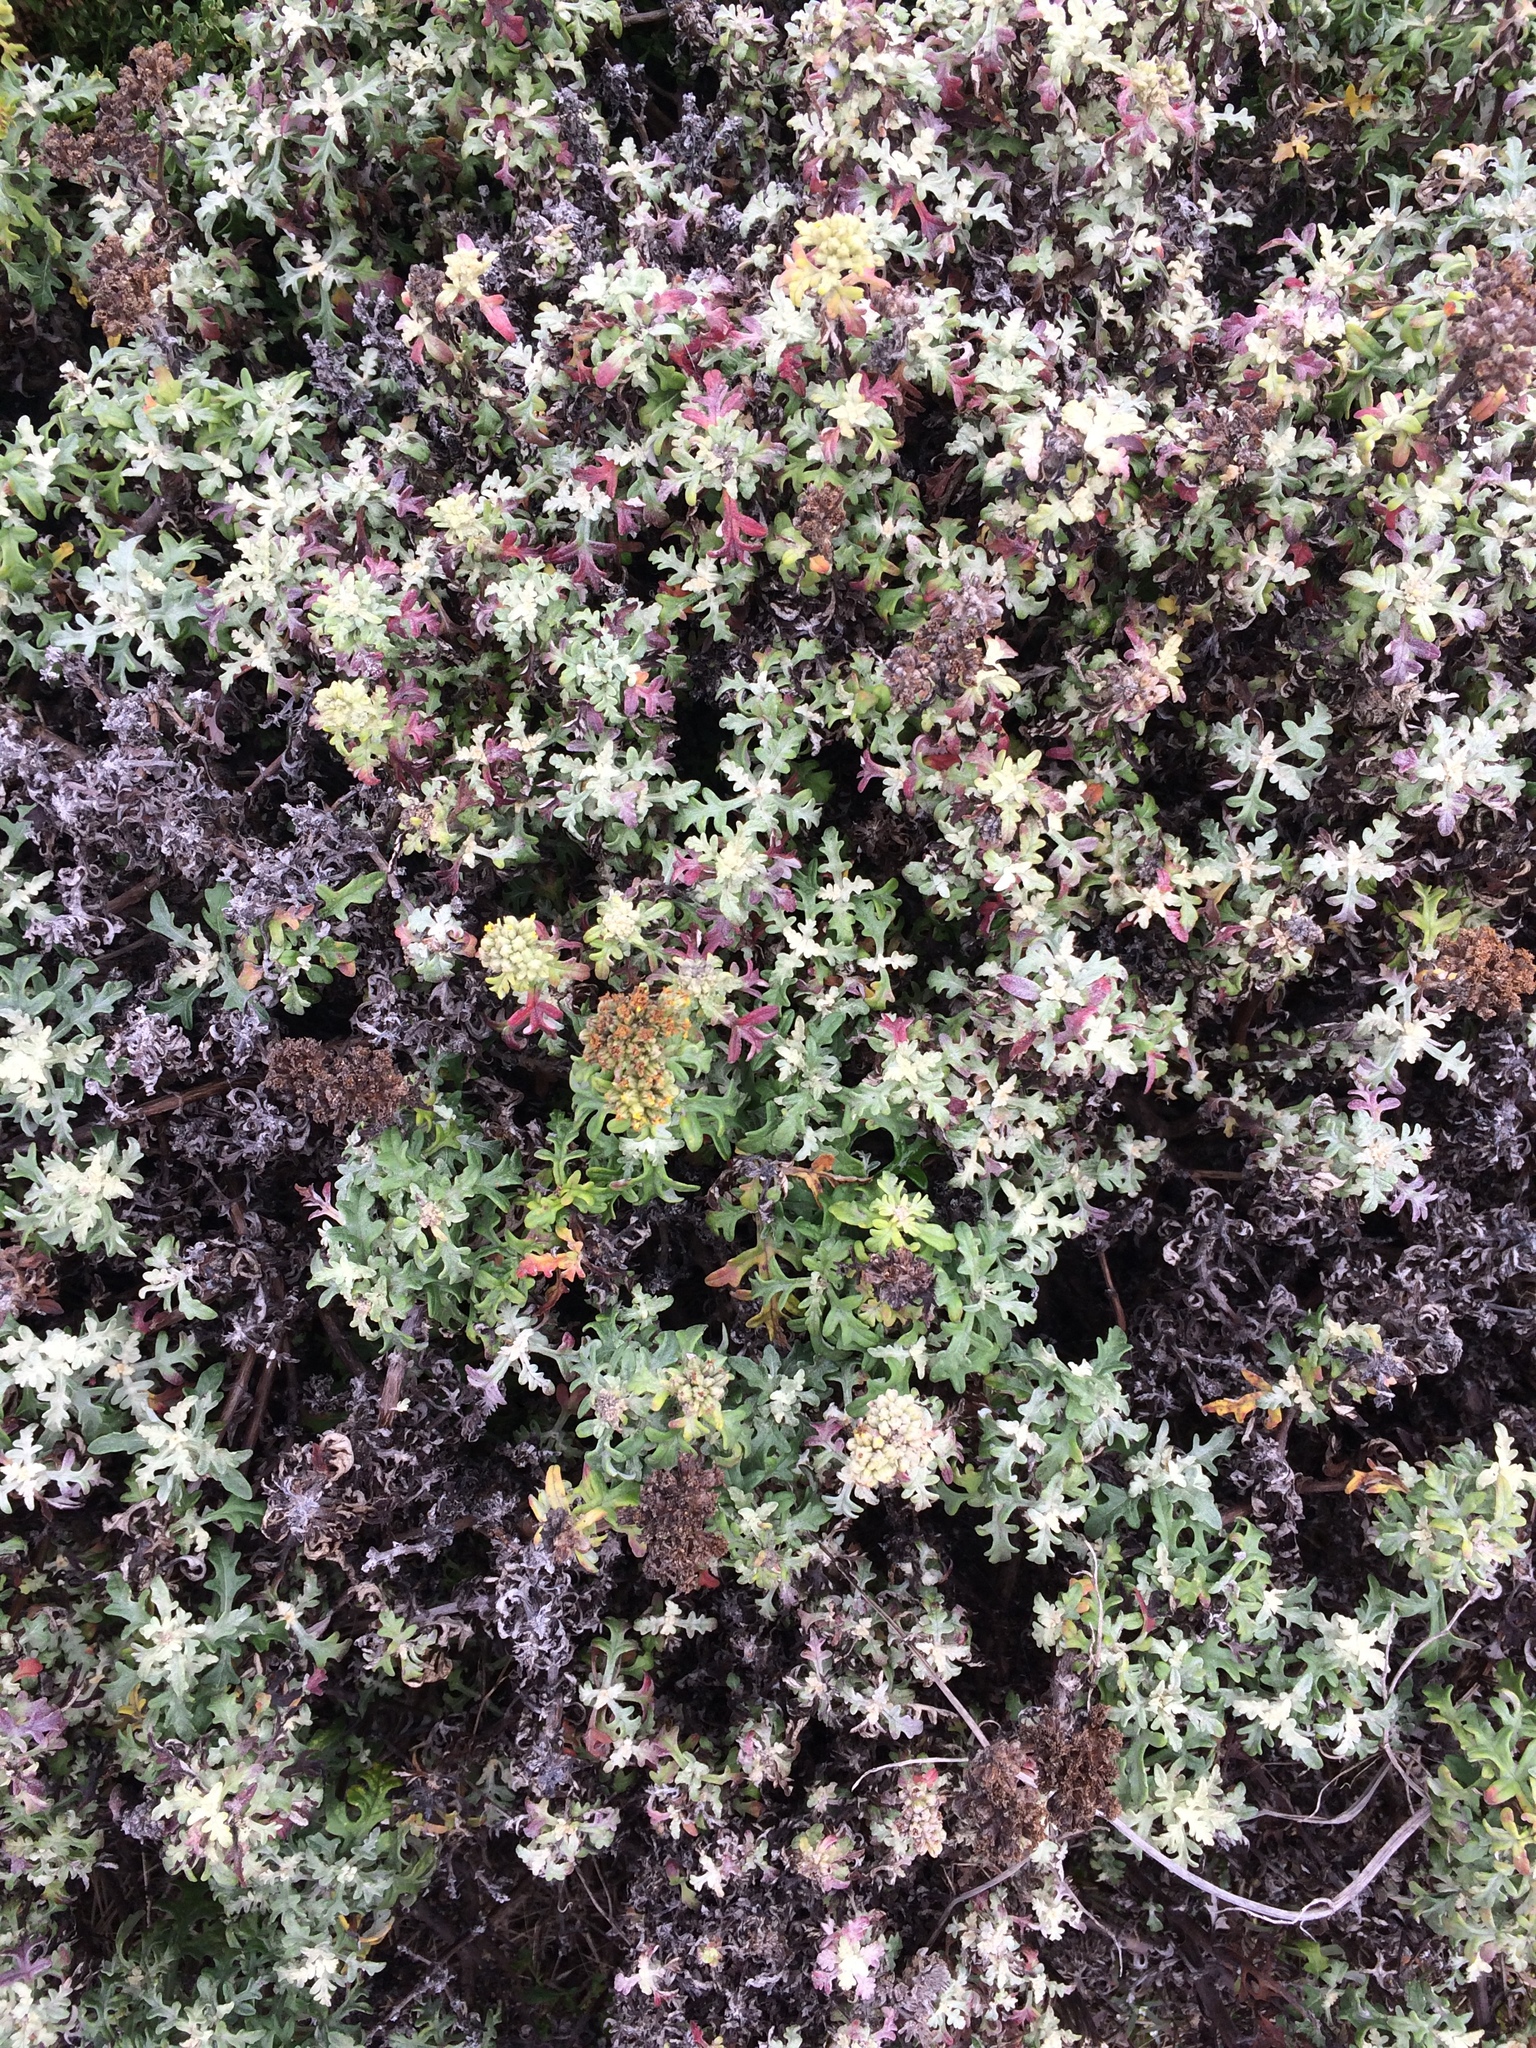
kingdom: Plantae
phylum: Tracheophyta
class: Magnoliopsida
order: Asterales
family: Asteraceae
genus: Eriophyllum
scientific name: Eriophyllum staechadifolium
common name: Lizardtail
